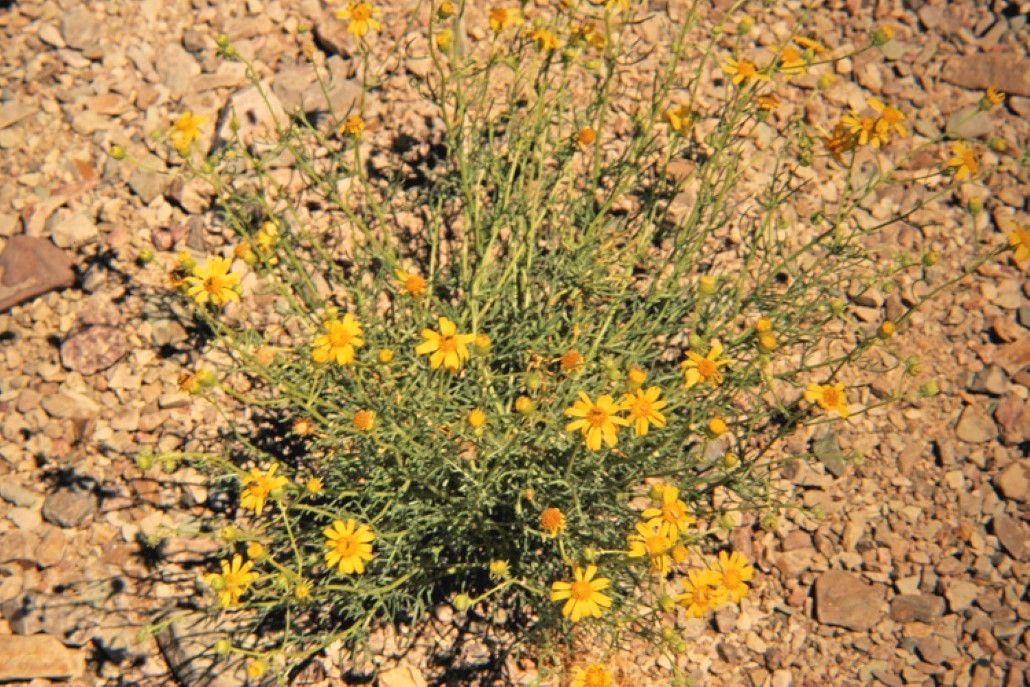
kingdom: Plantae
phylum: Tracheophyta
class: Magnoliopsida
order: Asterales
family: Asteraceae
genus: Senecio
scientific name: Senecio flaccidus
